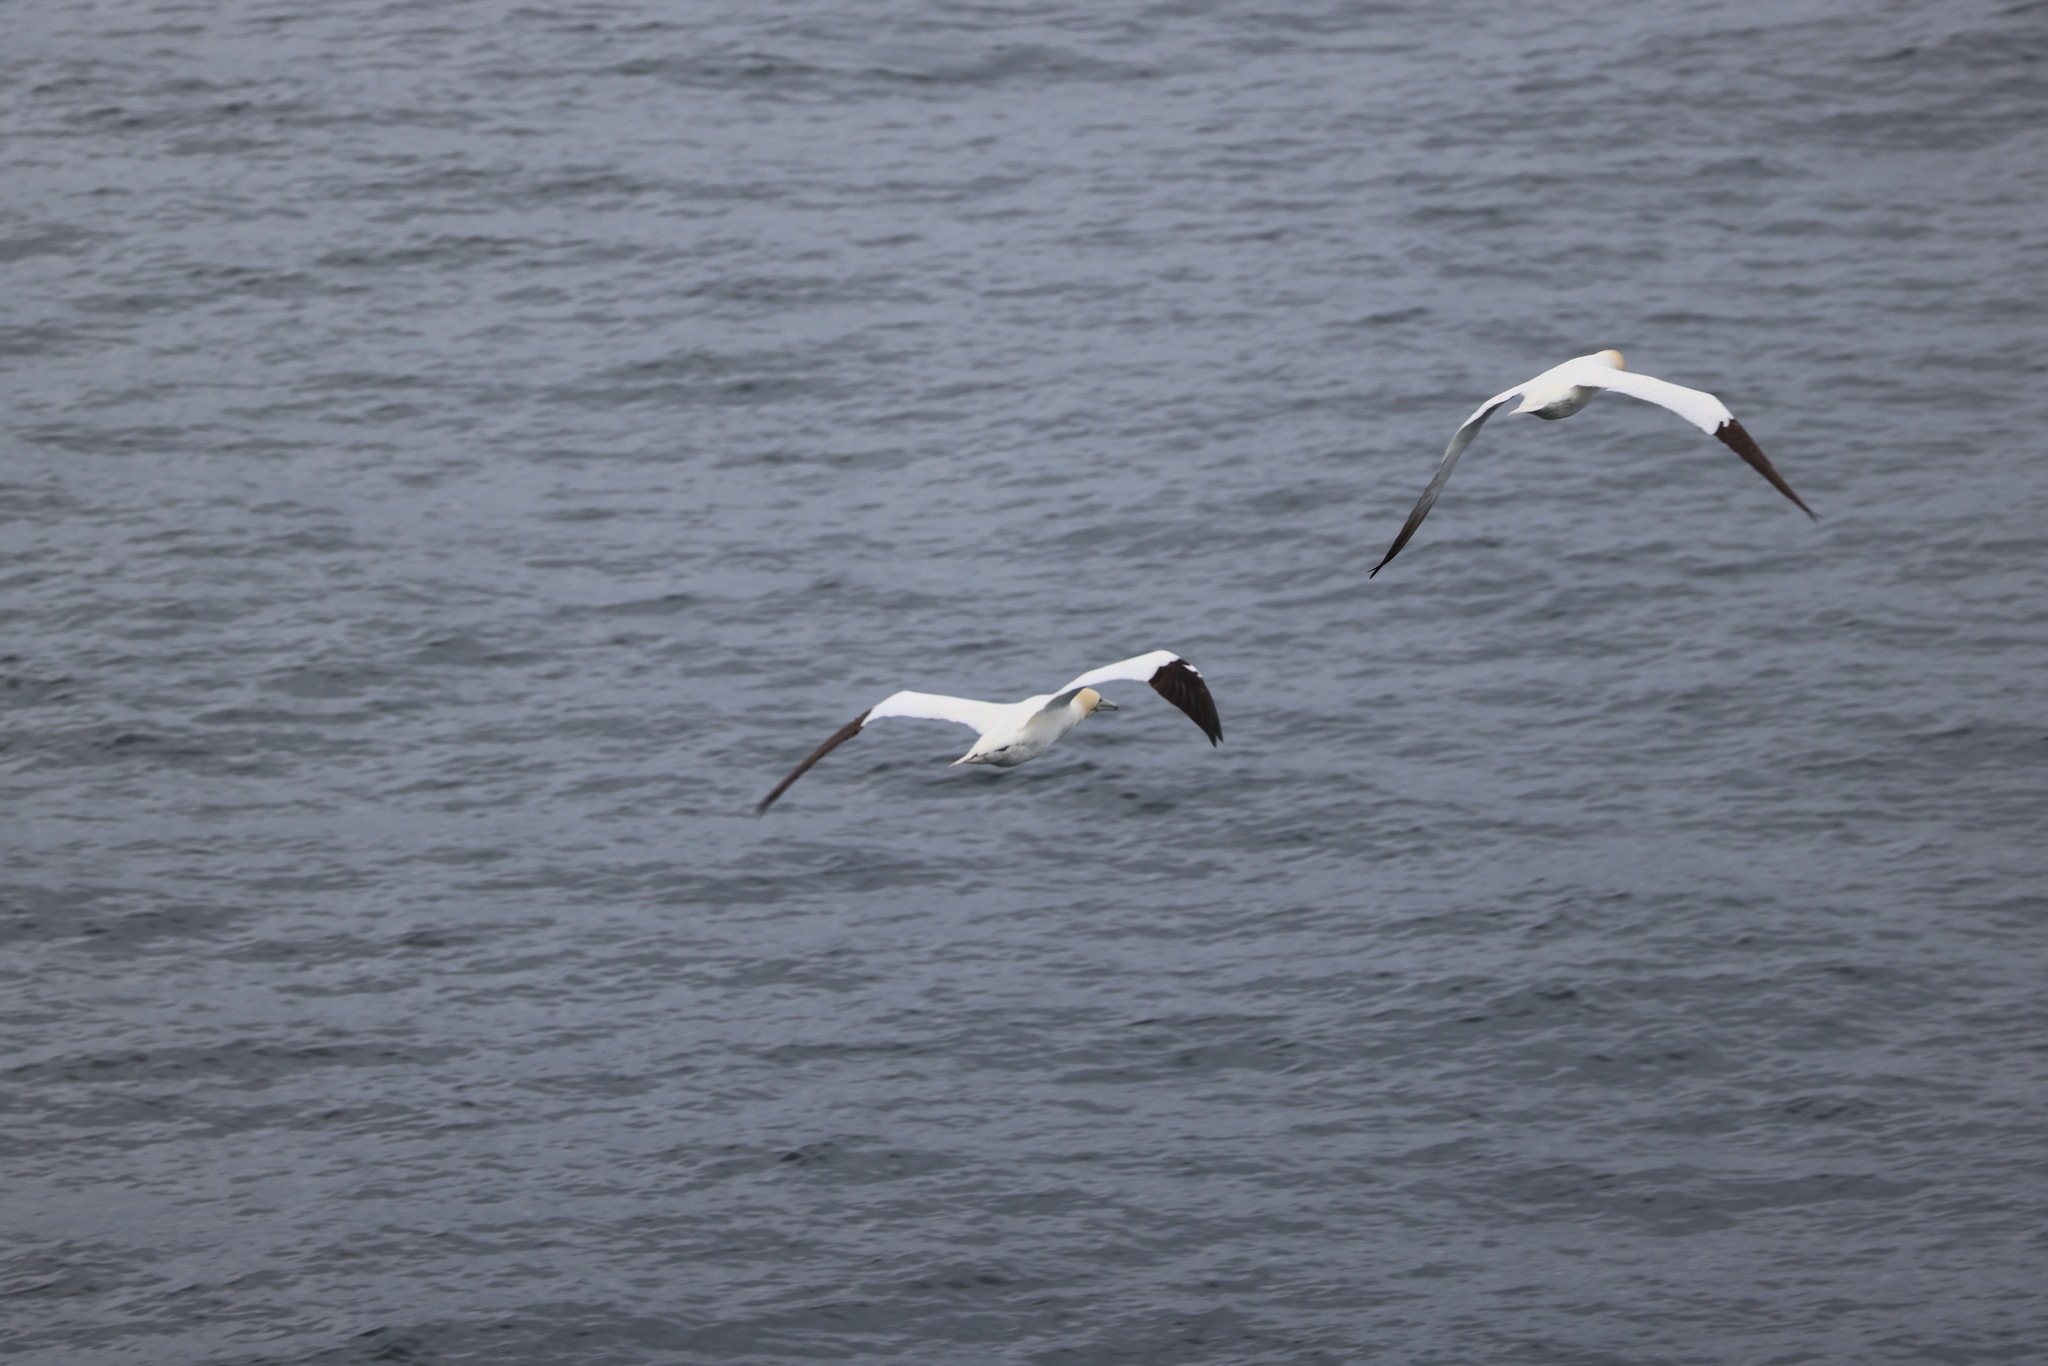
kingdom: Animalia
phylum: Chordata
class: Aves
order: Suliformes
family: Sulidae
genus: Morus
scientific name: Morus bassanus
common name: Northern gannet
